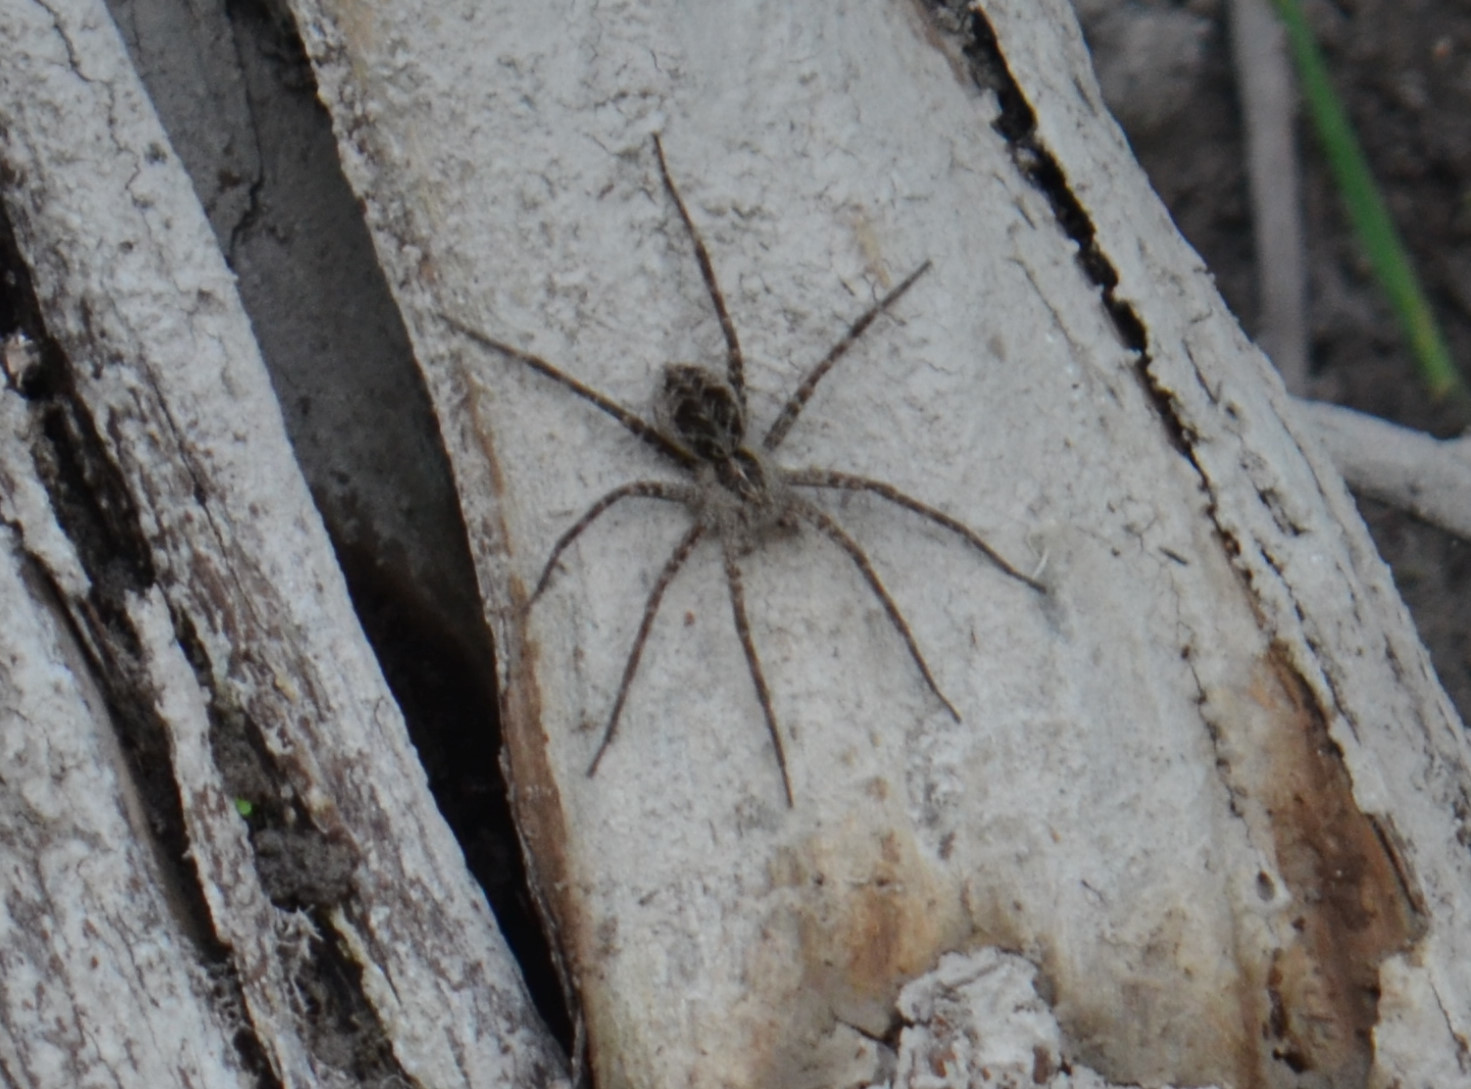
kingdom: Animalia
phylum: Arthropoda
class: Arachnida
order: Araneae
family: Pisauridae
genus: Dolomedes
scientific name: Dolomedes scriptus
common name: Striped fishing spider
